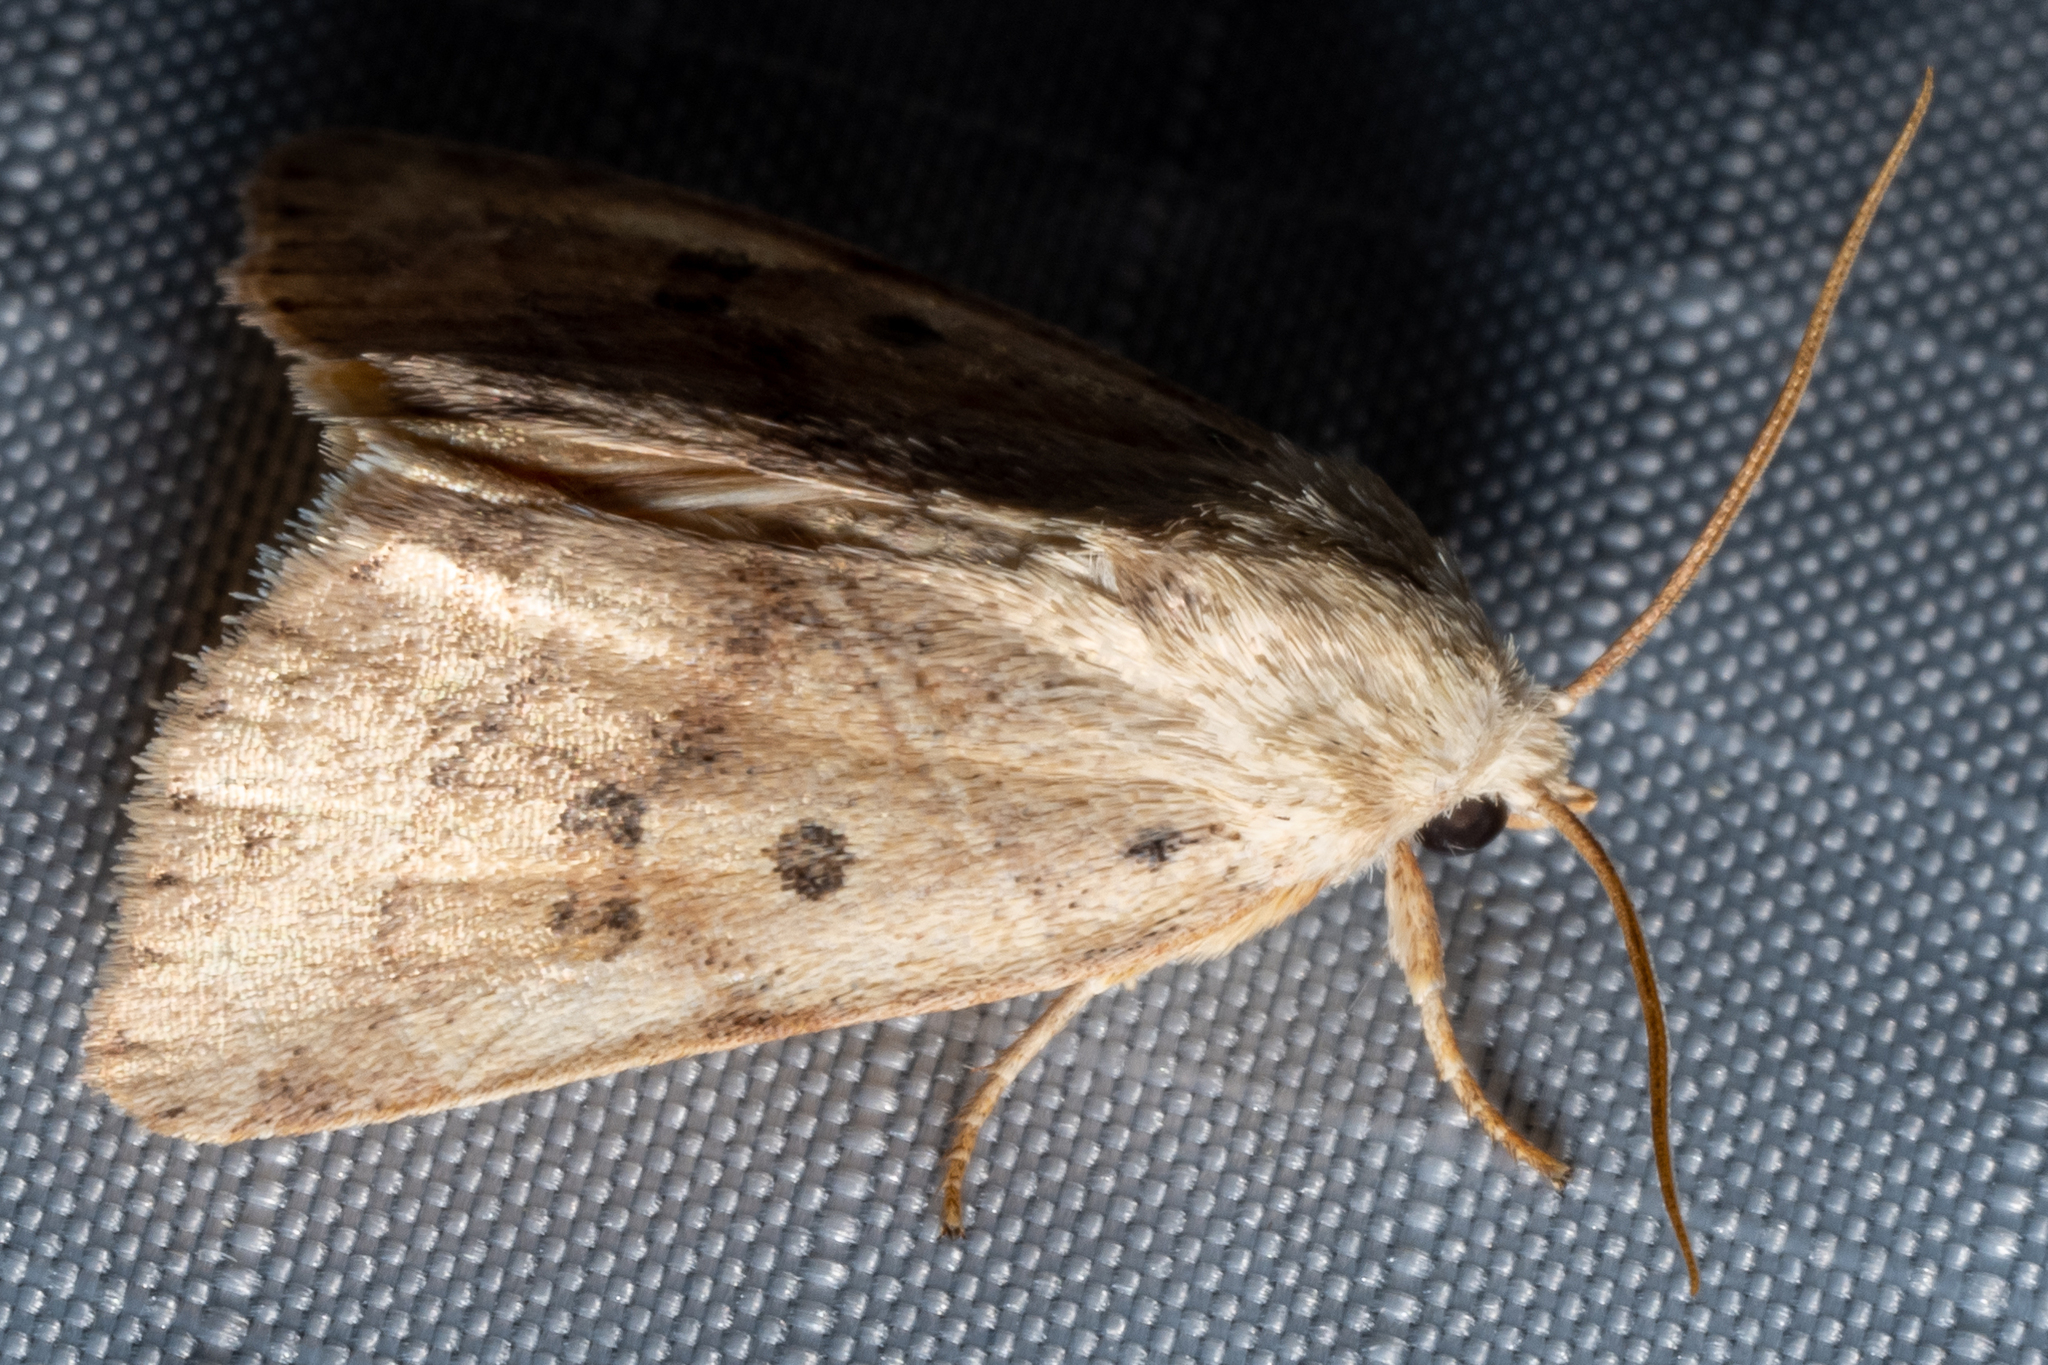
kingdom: Animalia
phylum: Arthropoda
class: Insecta
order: Lepidoptera
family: Noctuidae
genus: Cosmia
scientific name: Cosmia calami
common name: American dun-bar moth
